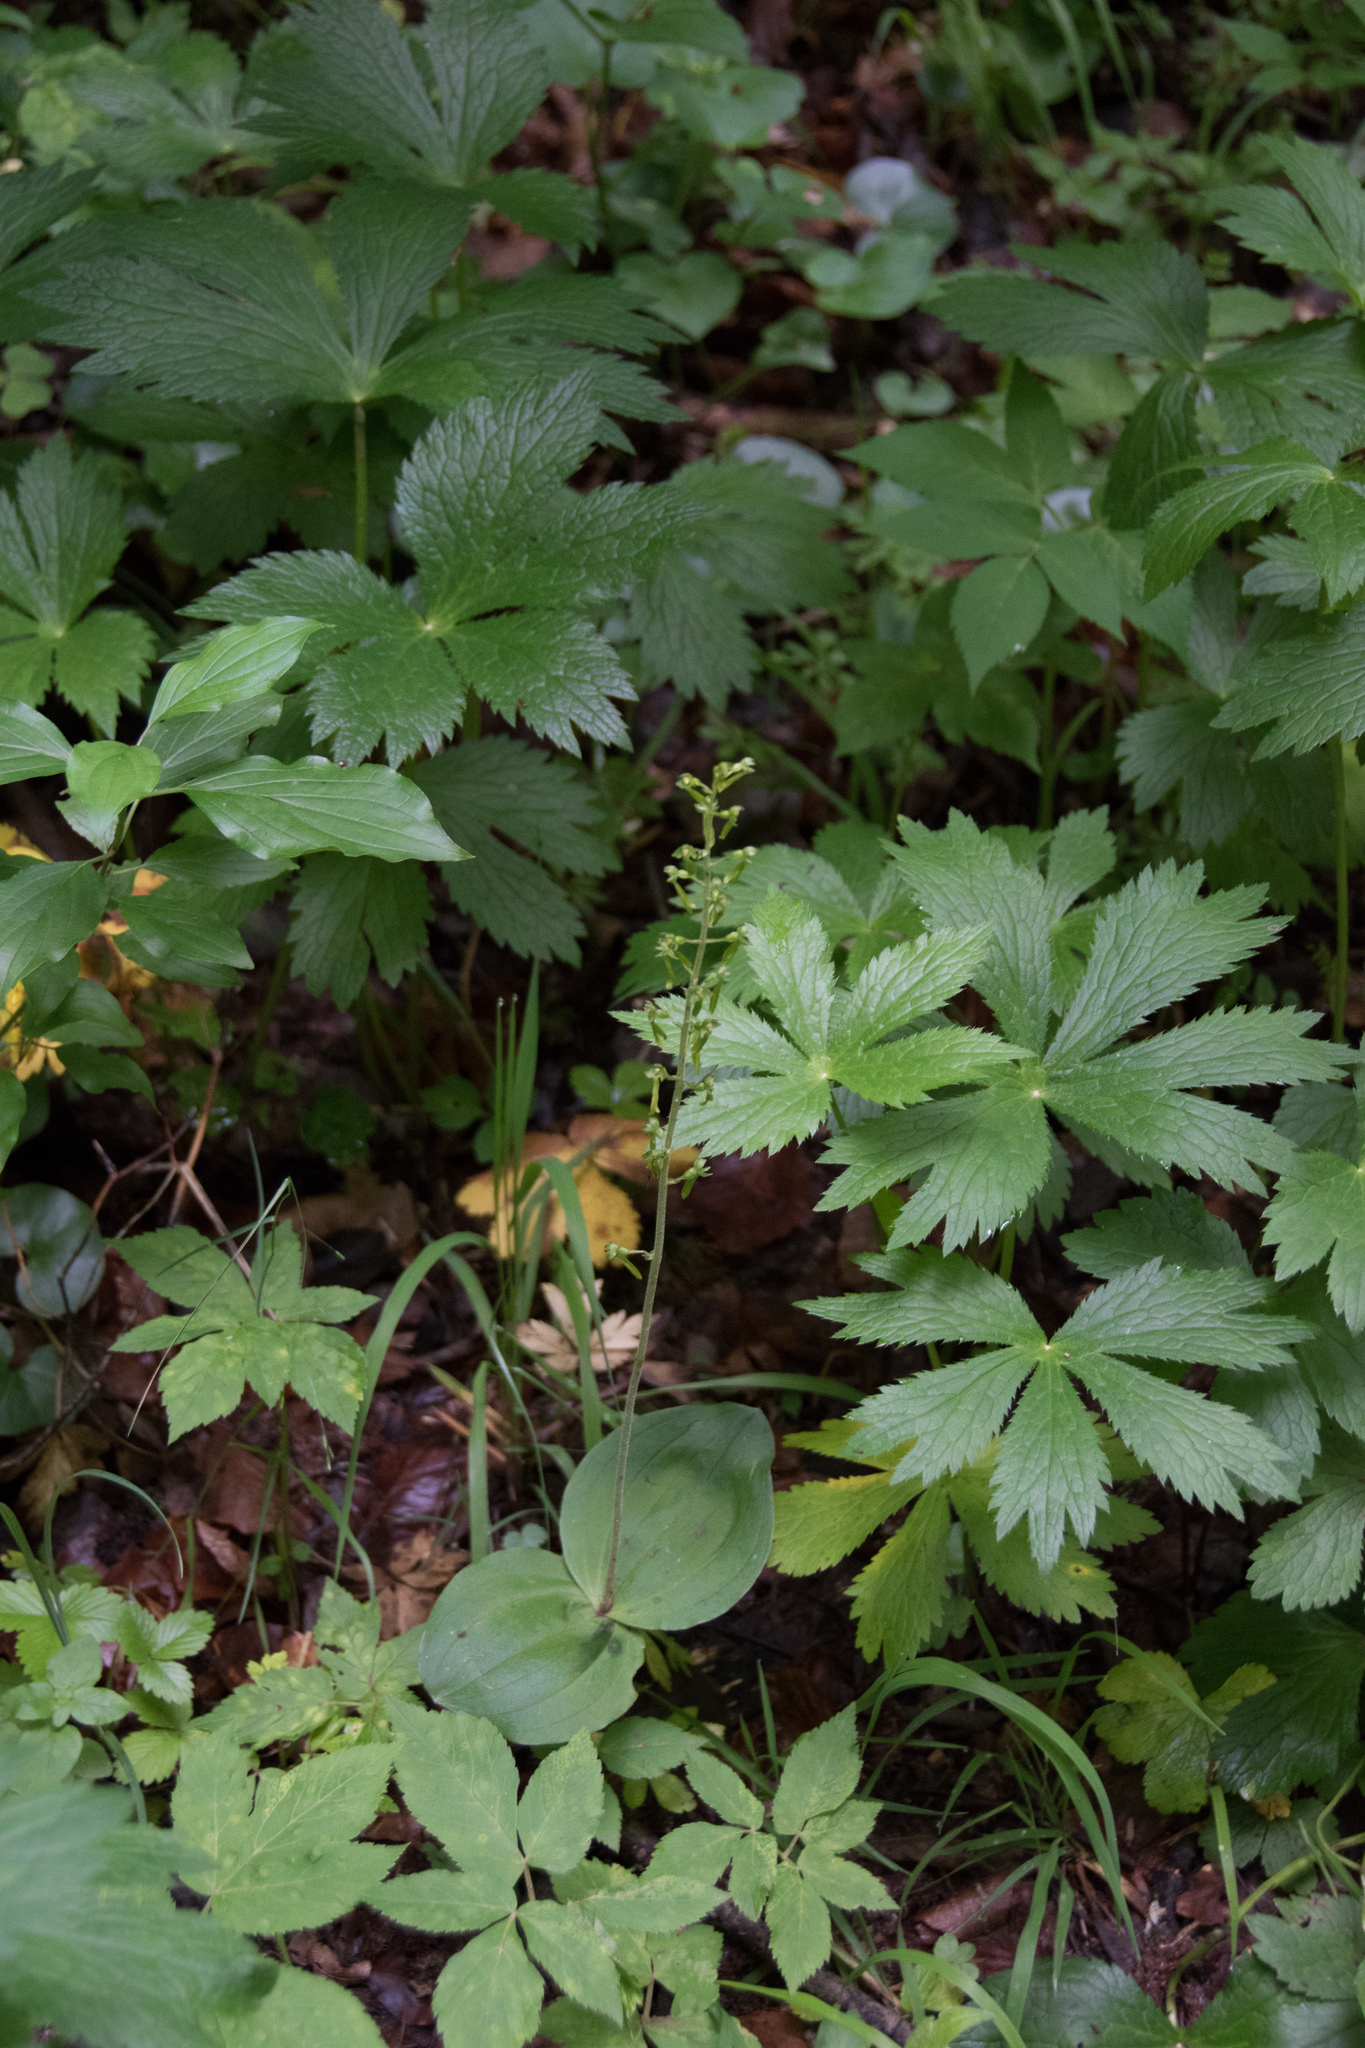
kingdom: Plantae
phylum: Tracheophyta
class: Liliopsida
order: Asparagales
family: Orchidaceae
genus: Neottia
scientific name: Neottia ovata
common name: Common twayblade
